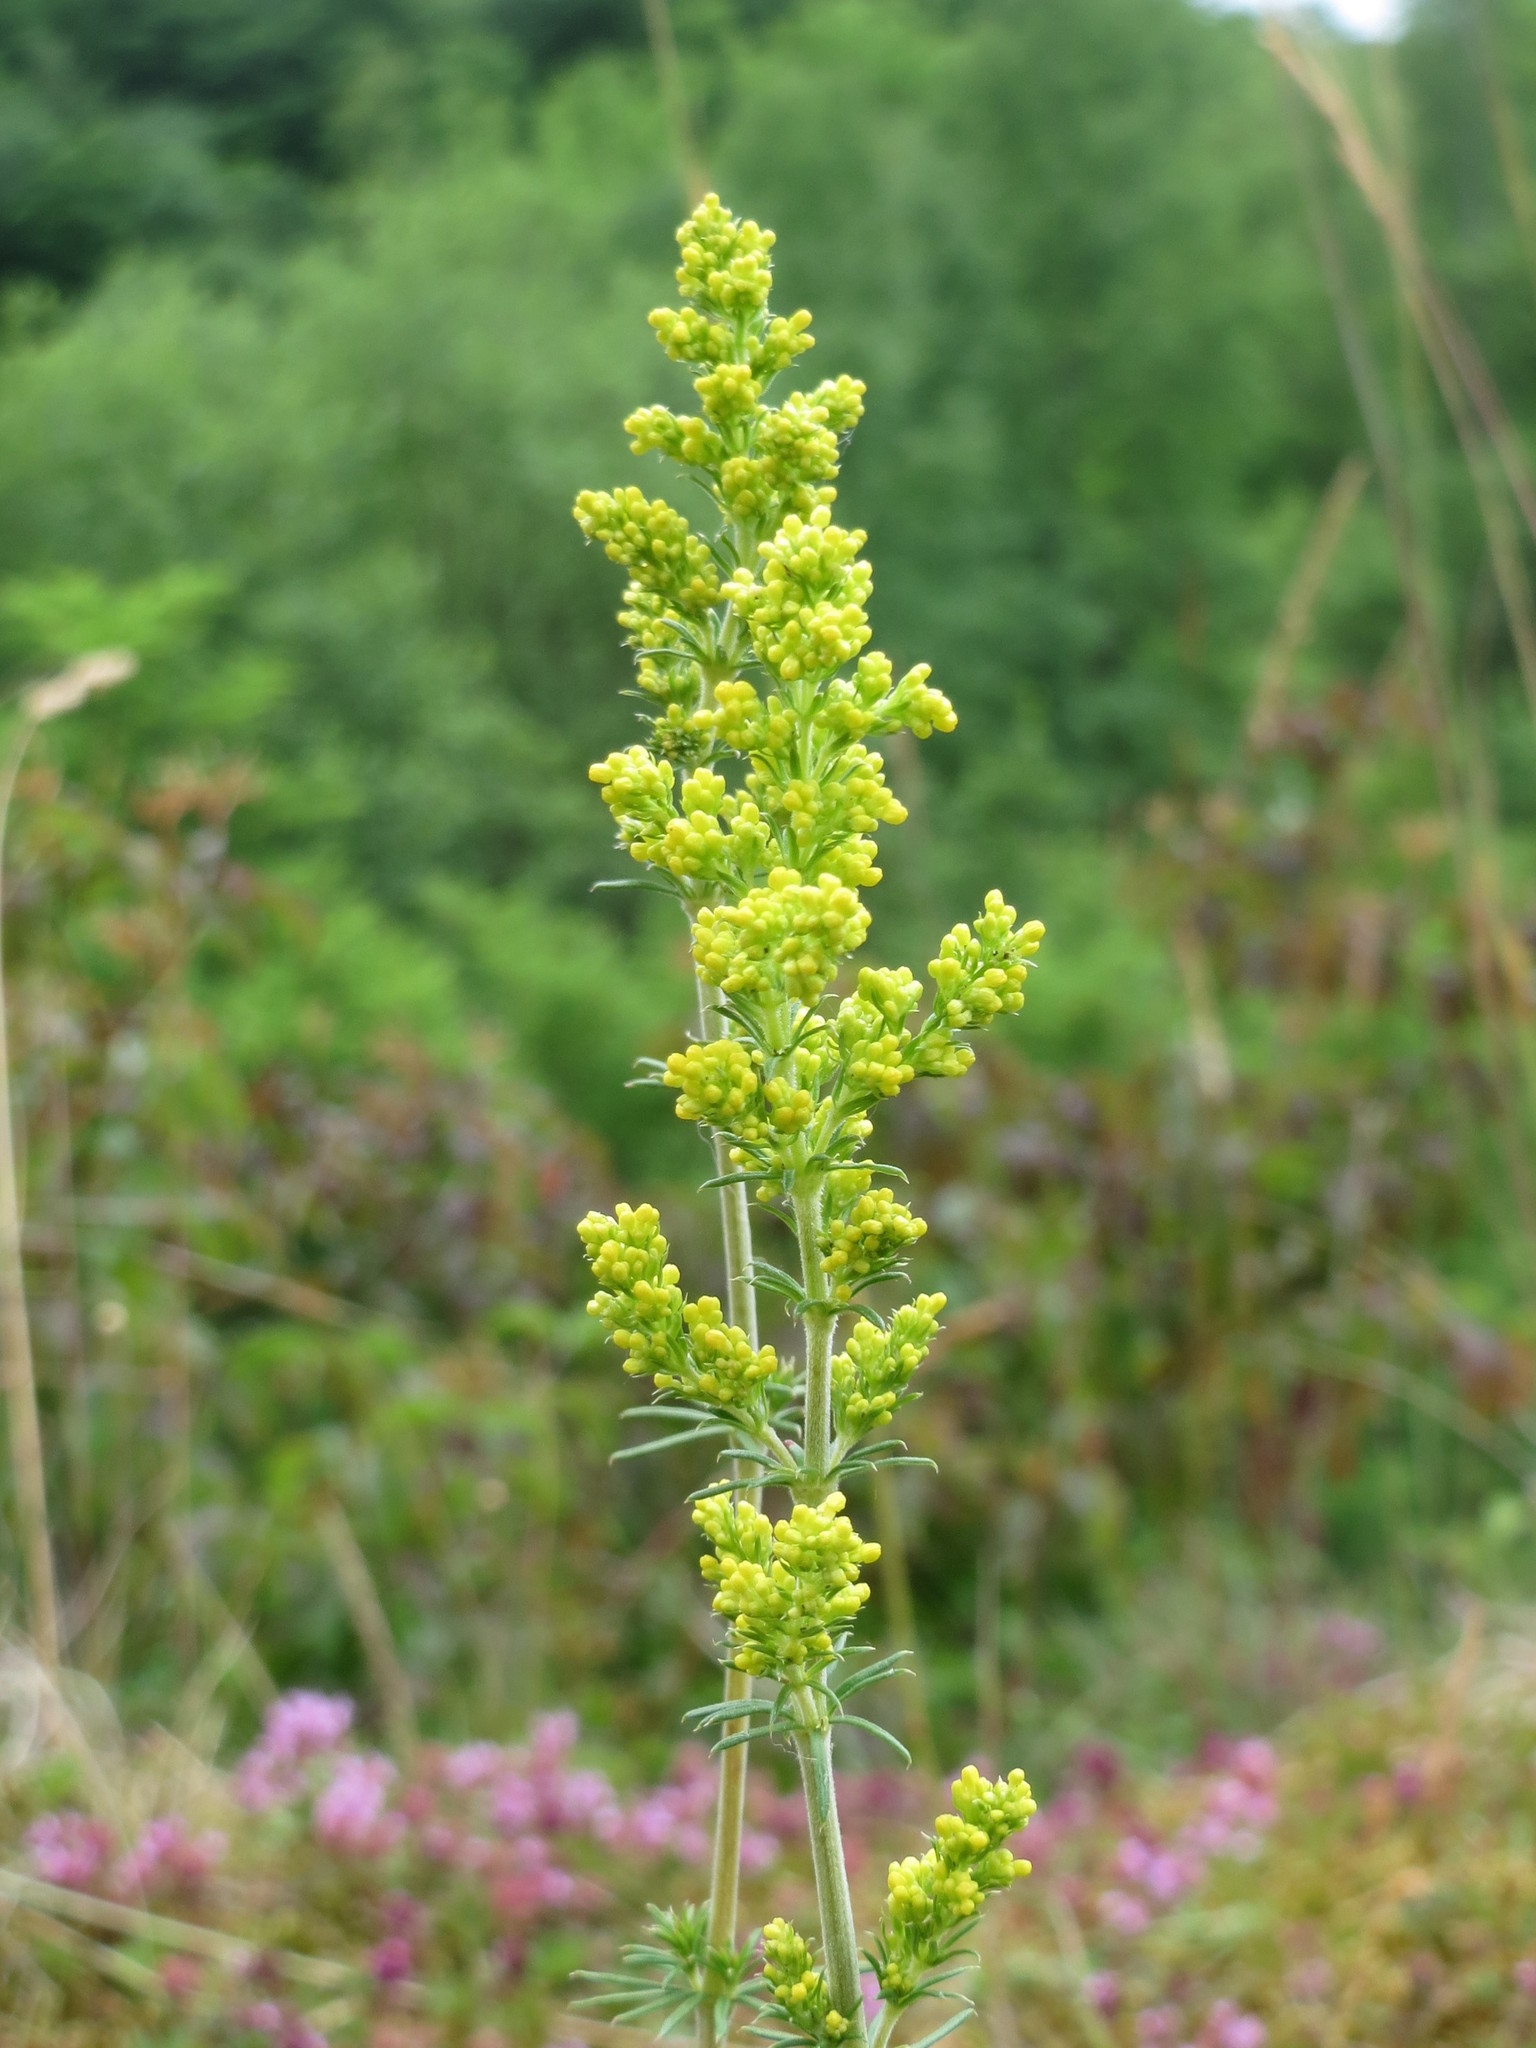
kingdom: Plantae
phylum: Tracheophyta
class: Magnoliopsida
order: Gentianales
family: Rubiaceae
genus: Galium
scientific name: Galium verum
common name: Lady's bedstraw
